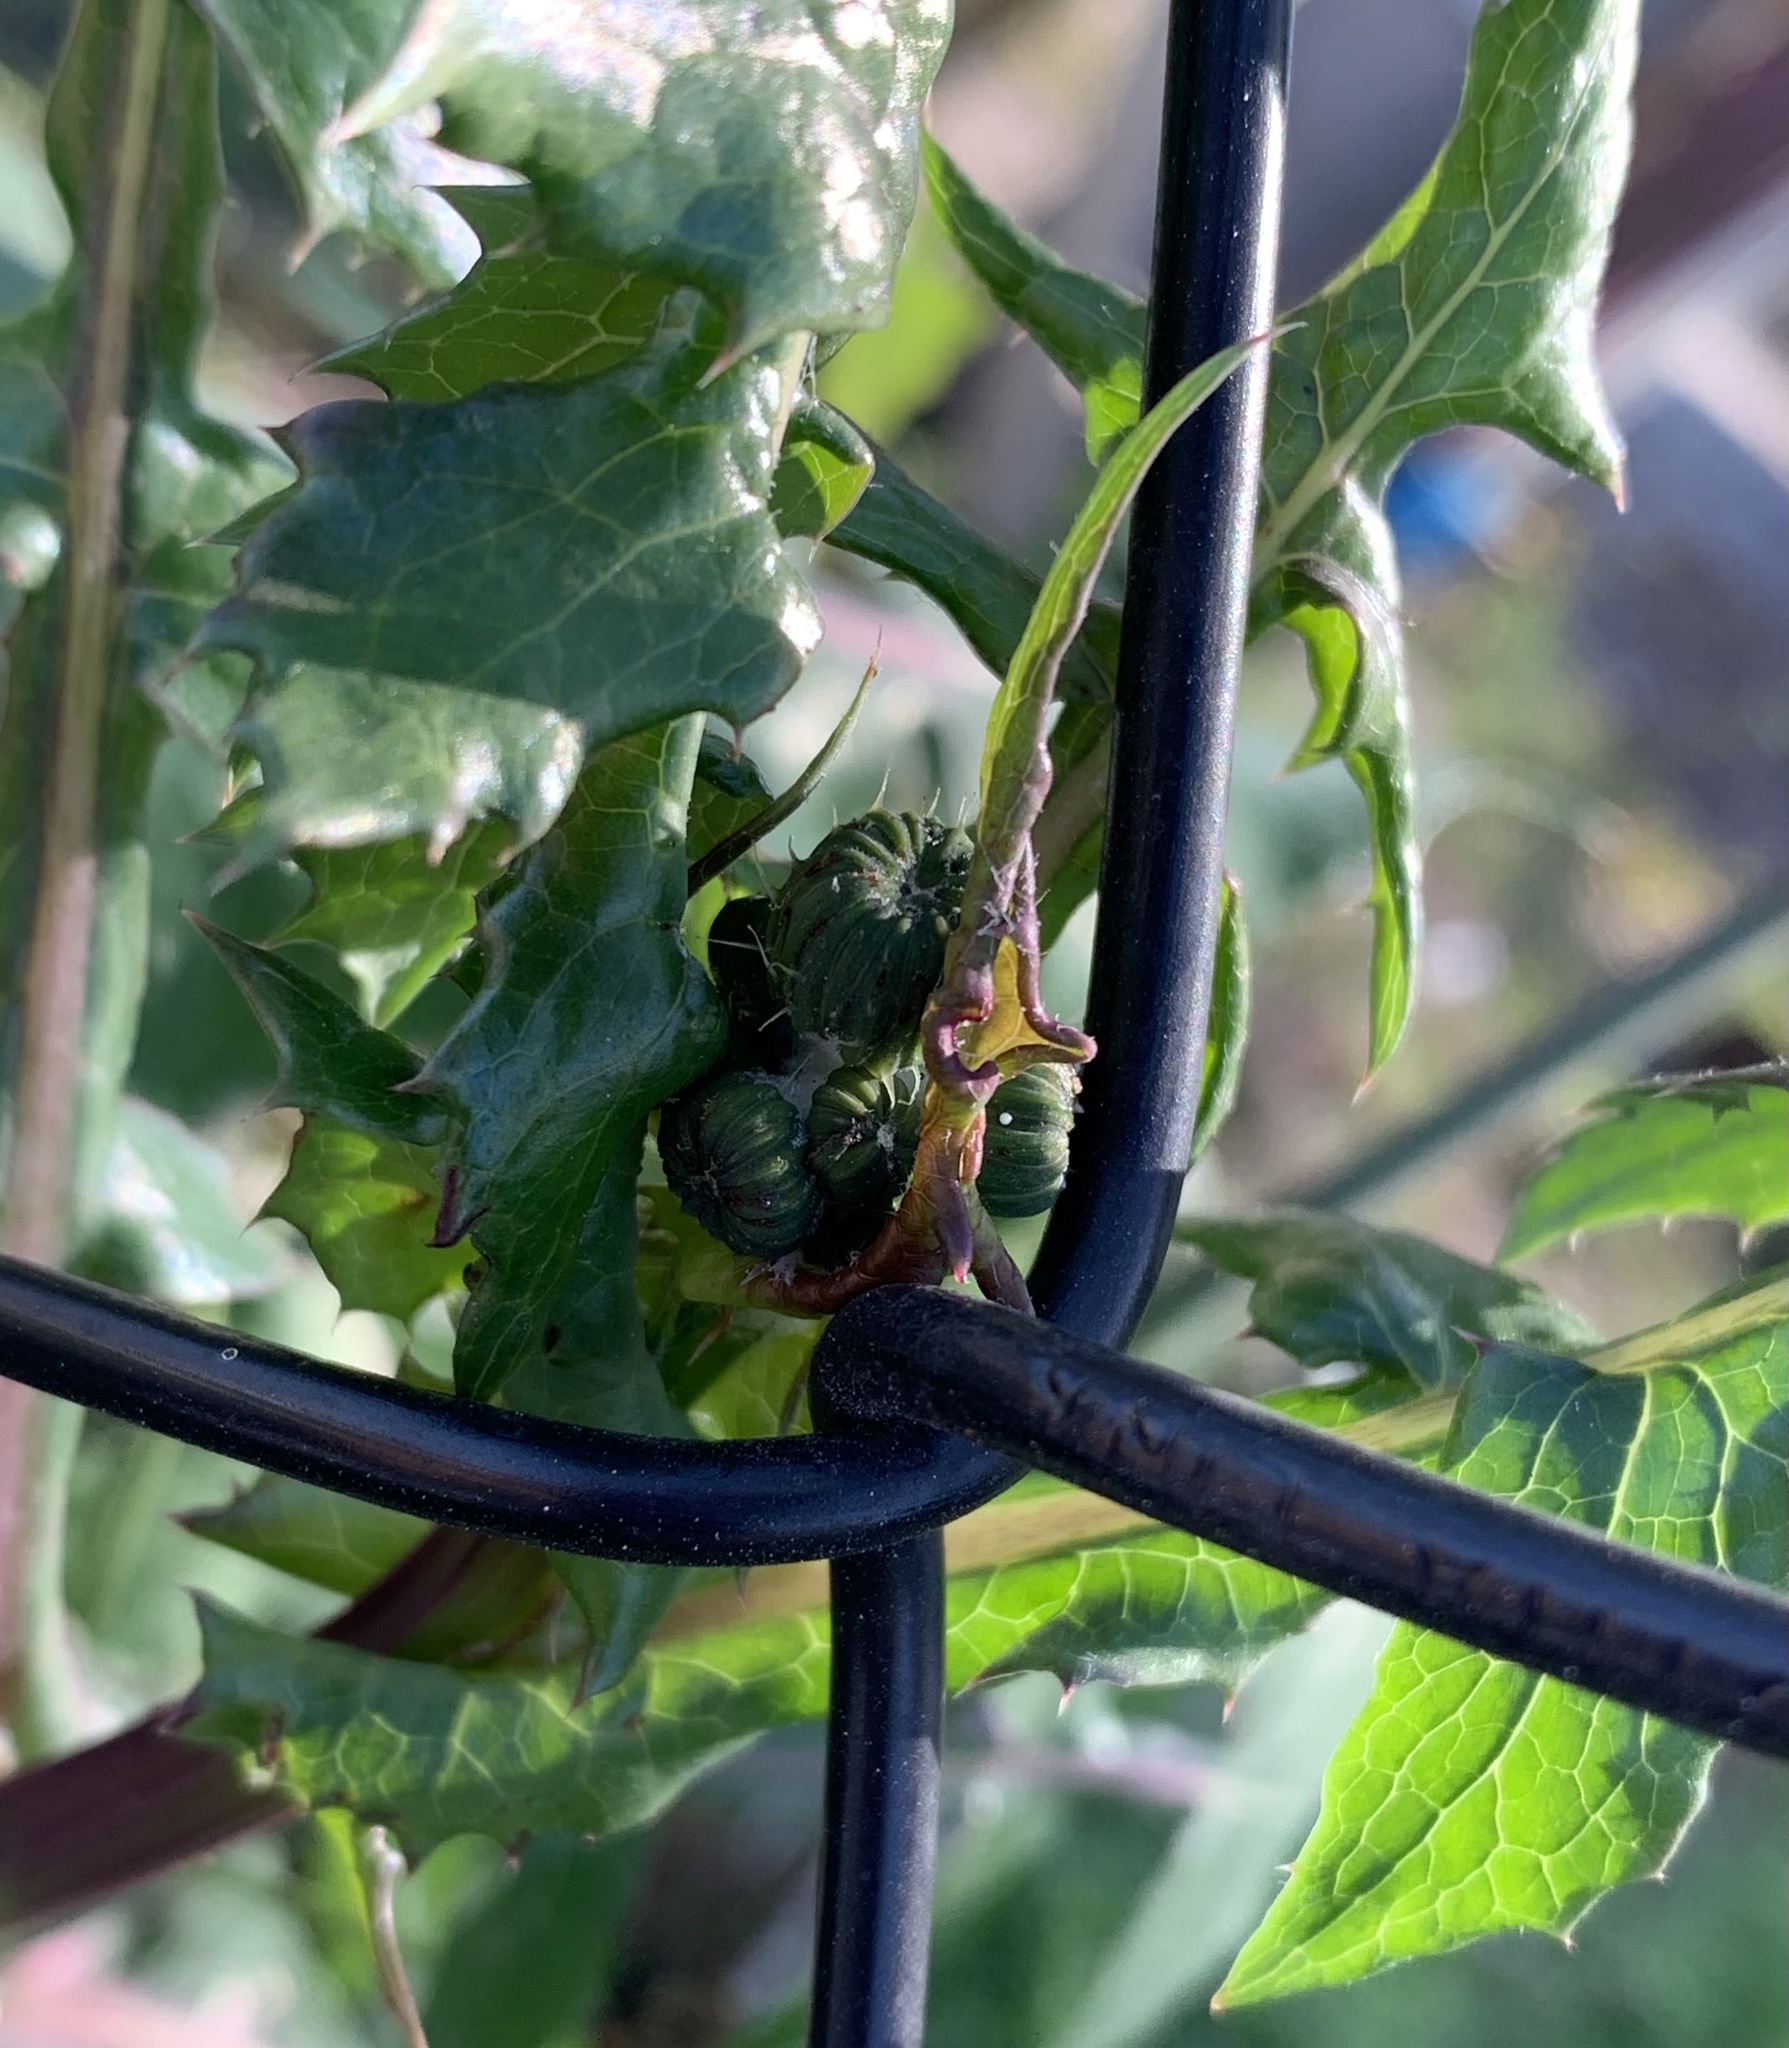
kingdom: Plantae
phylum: Tracheophyta
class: Magnoliopsida
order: Asterales
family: Asteraceae
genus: Sonchus
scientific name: Sonchus oleraceus
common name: Common sowthistle
